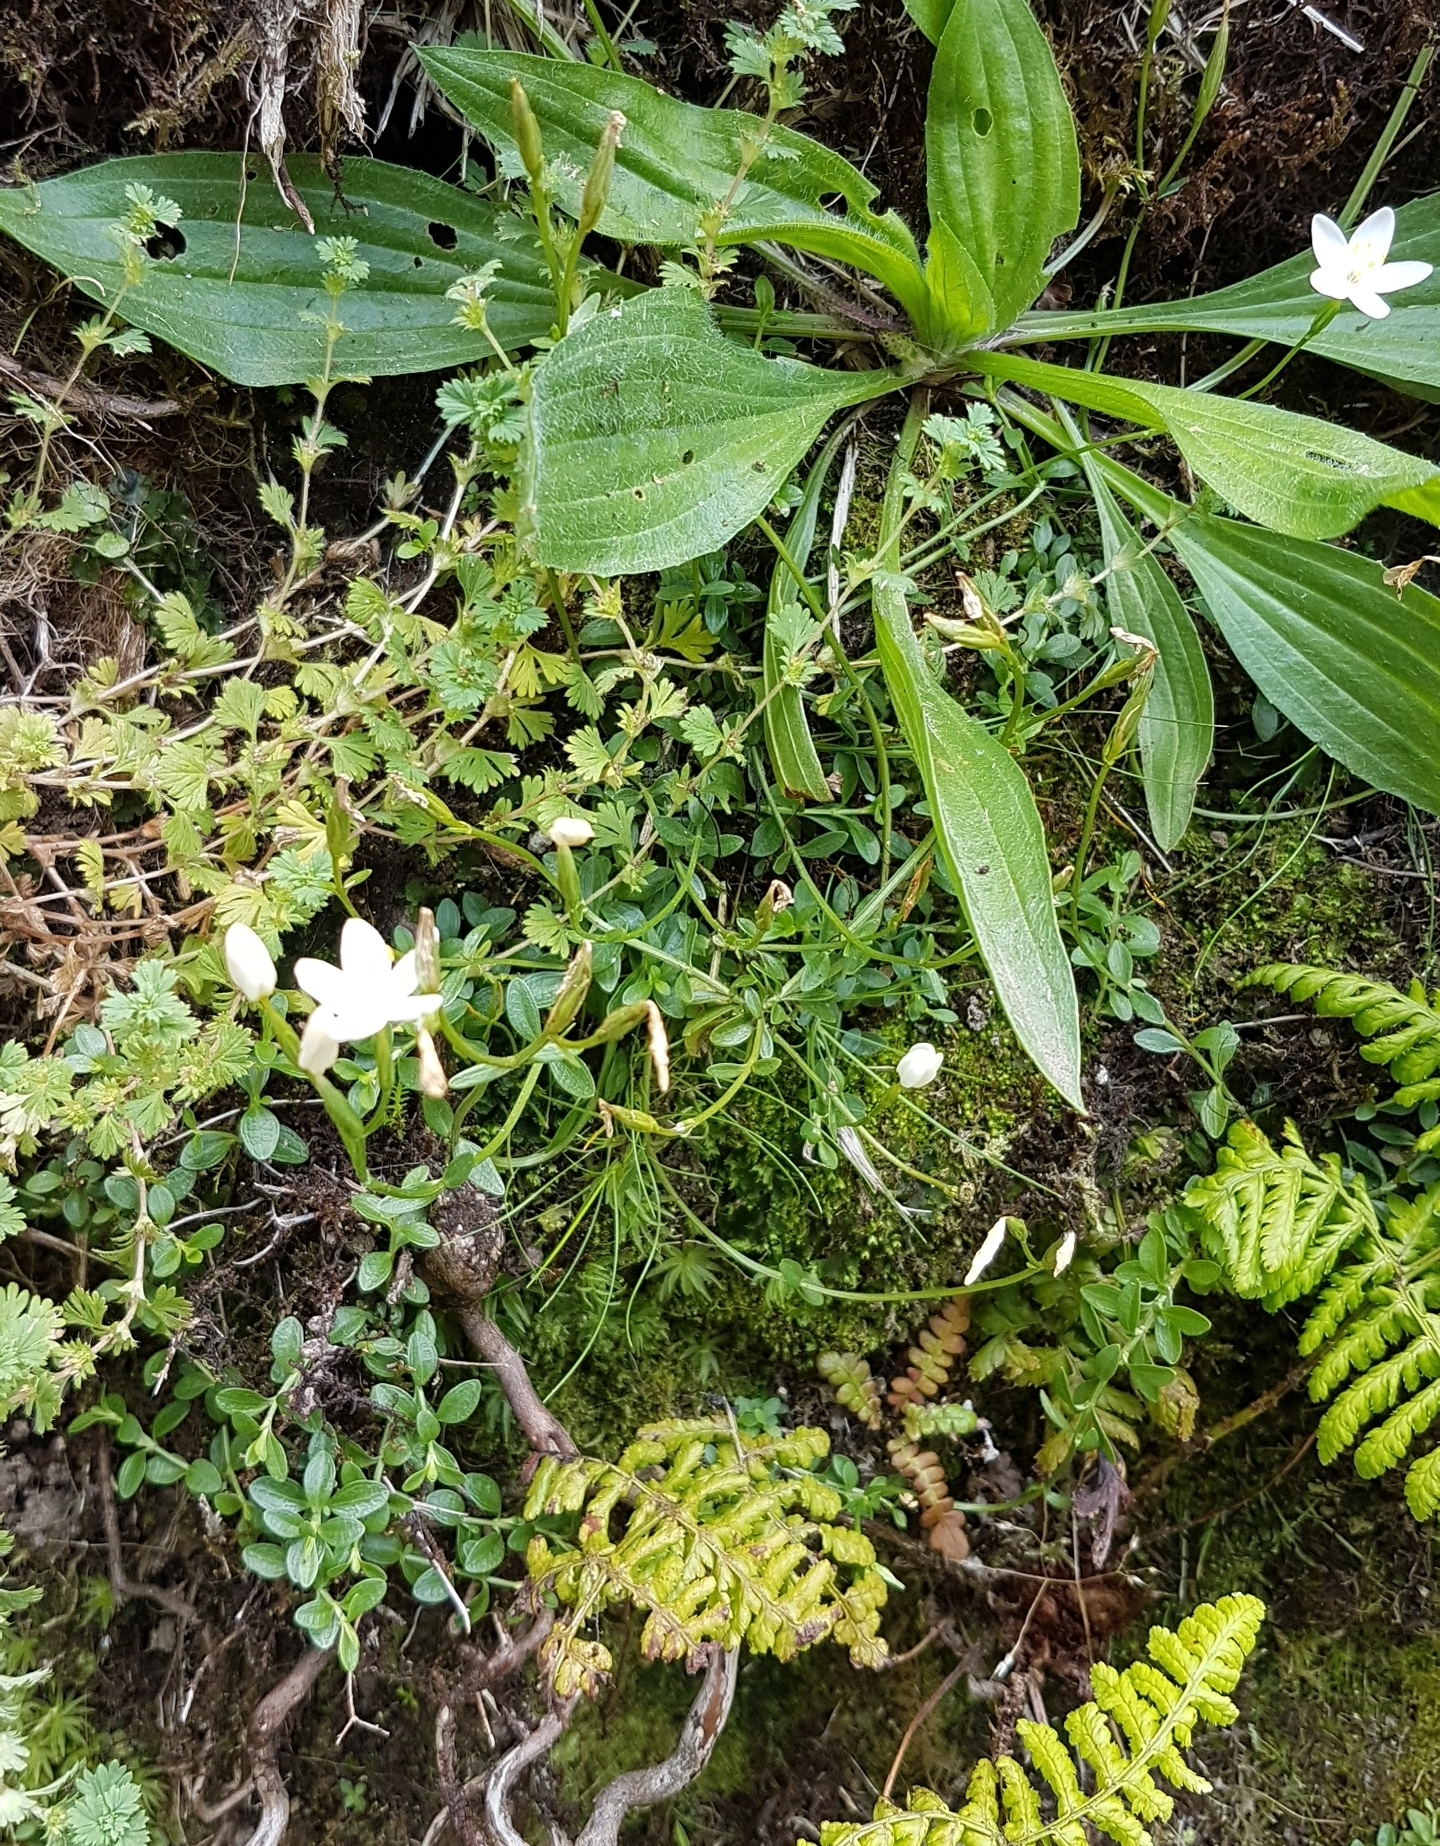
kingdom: Plantae
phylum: Tracheophyta
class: Magnoliopsida
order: Gentianales
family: Gentianaceae
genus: Centaurium
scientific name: Centaurium scilloides
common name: Perennial centaury
